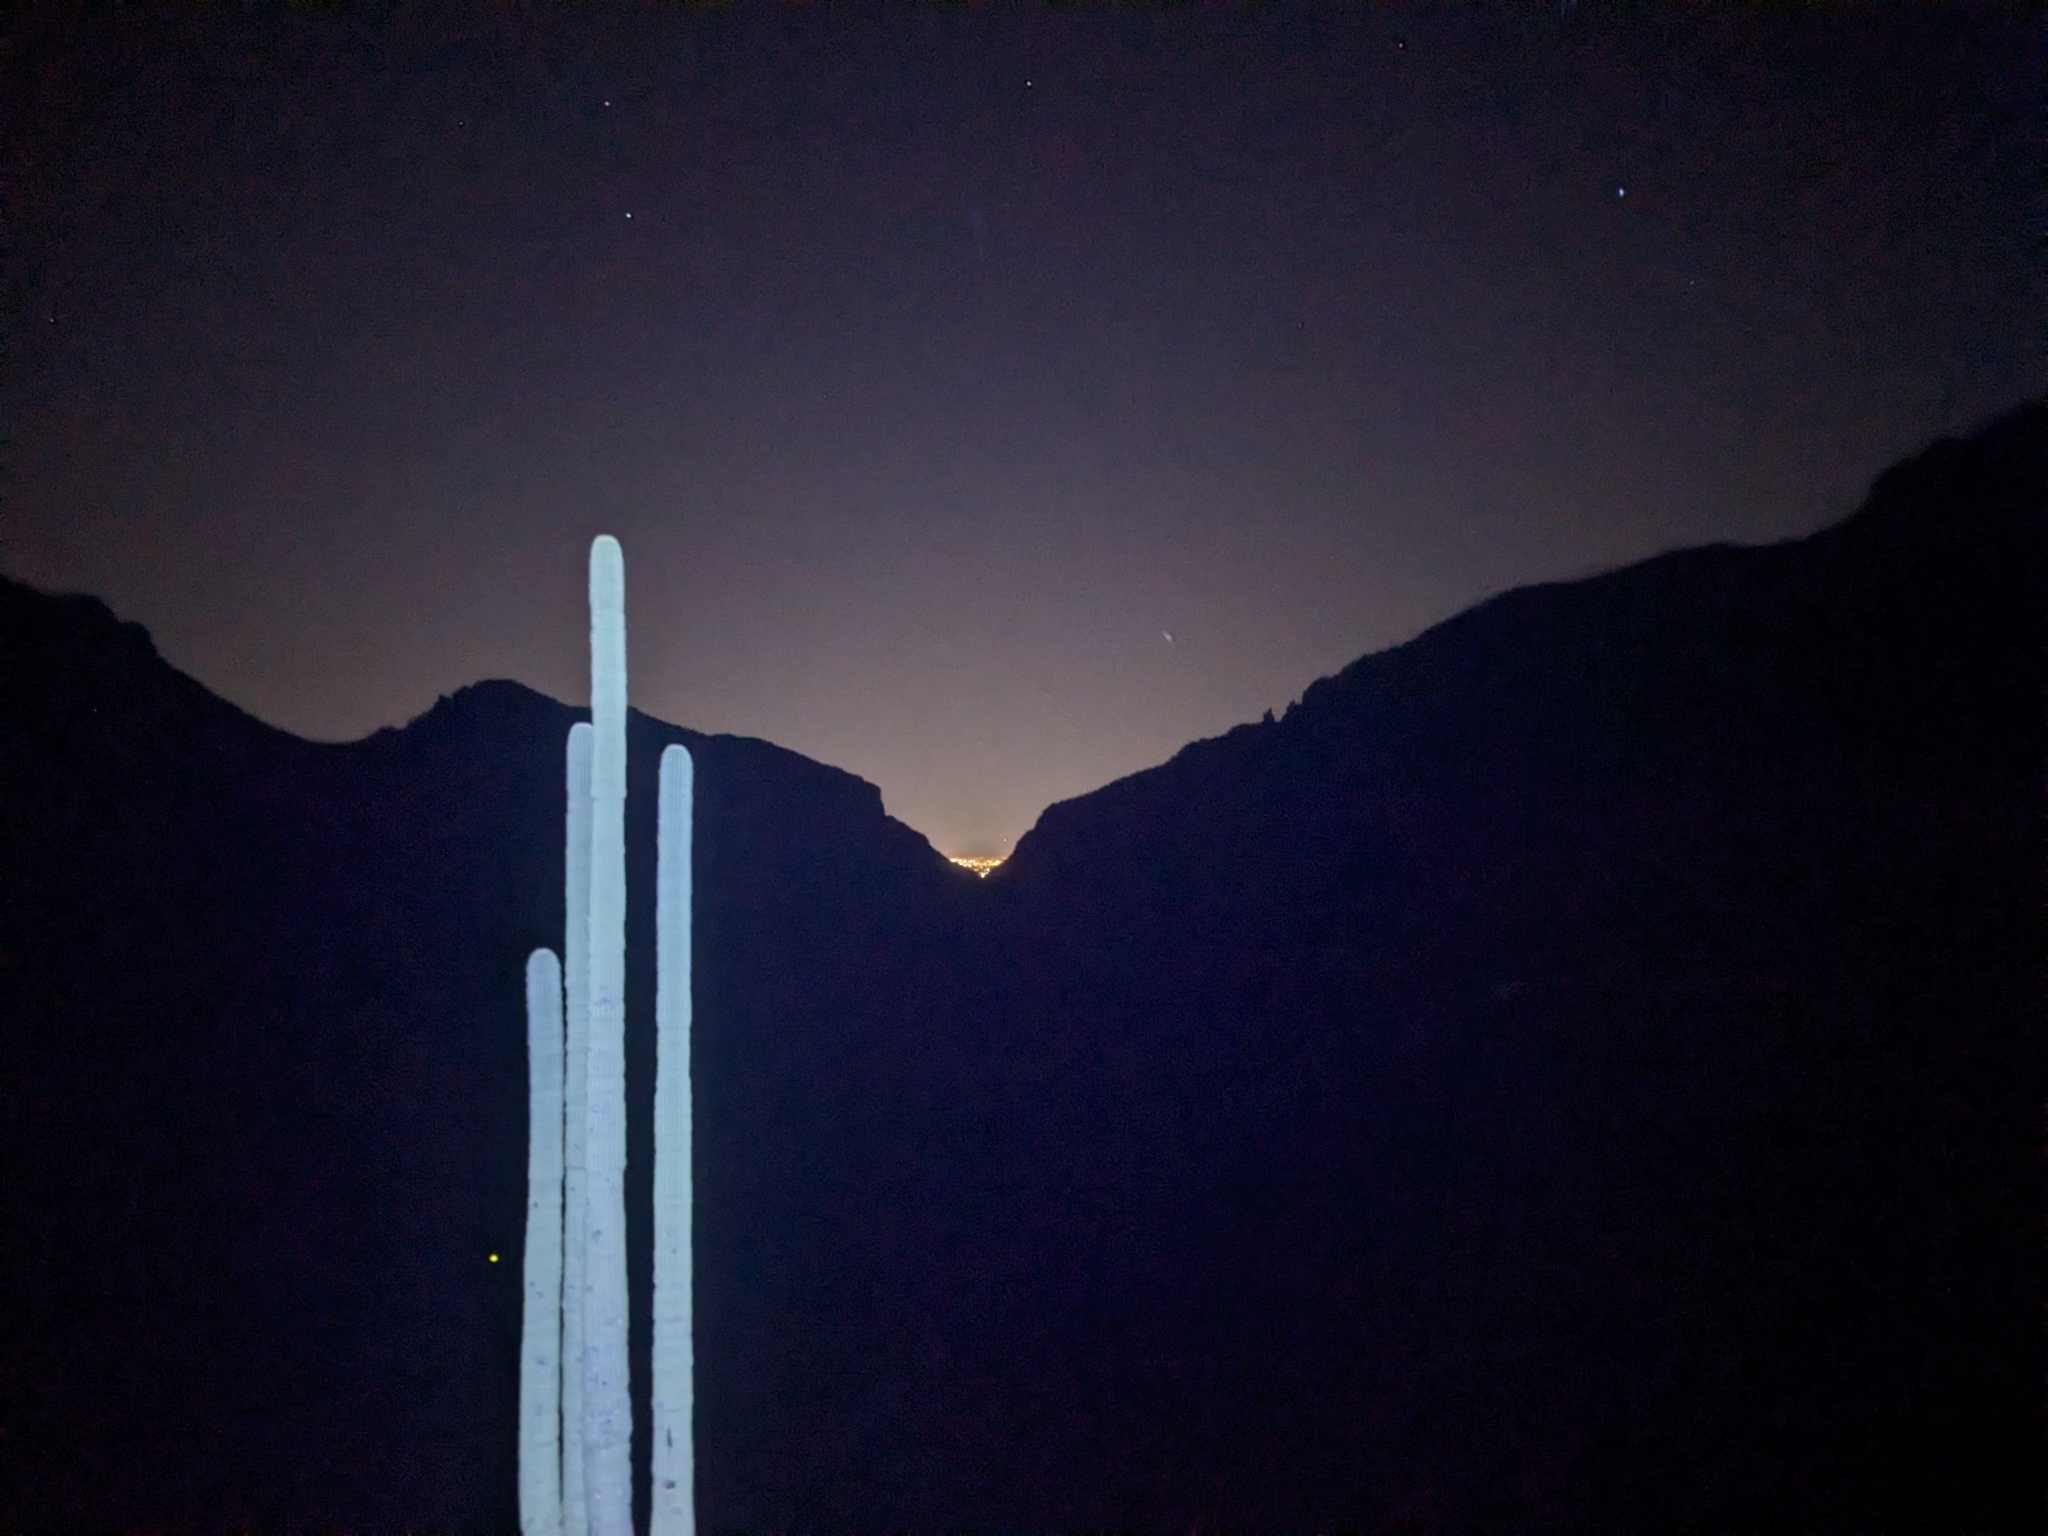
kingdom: Plantae
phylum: Tracheophyta
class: Magnoliopsida
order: Caryophyllales
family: Cactaceae
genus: Carnegiea
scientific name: Carnegiea gigantea
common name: Saguaro
